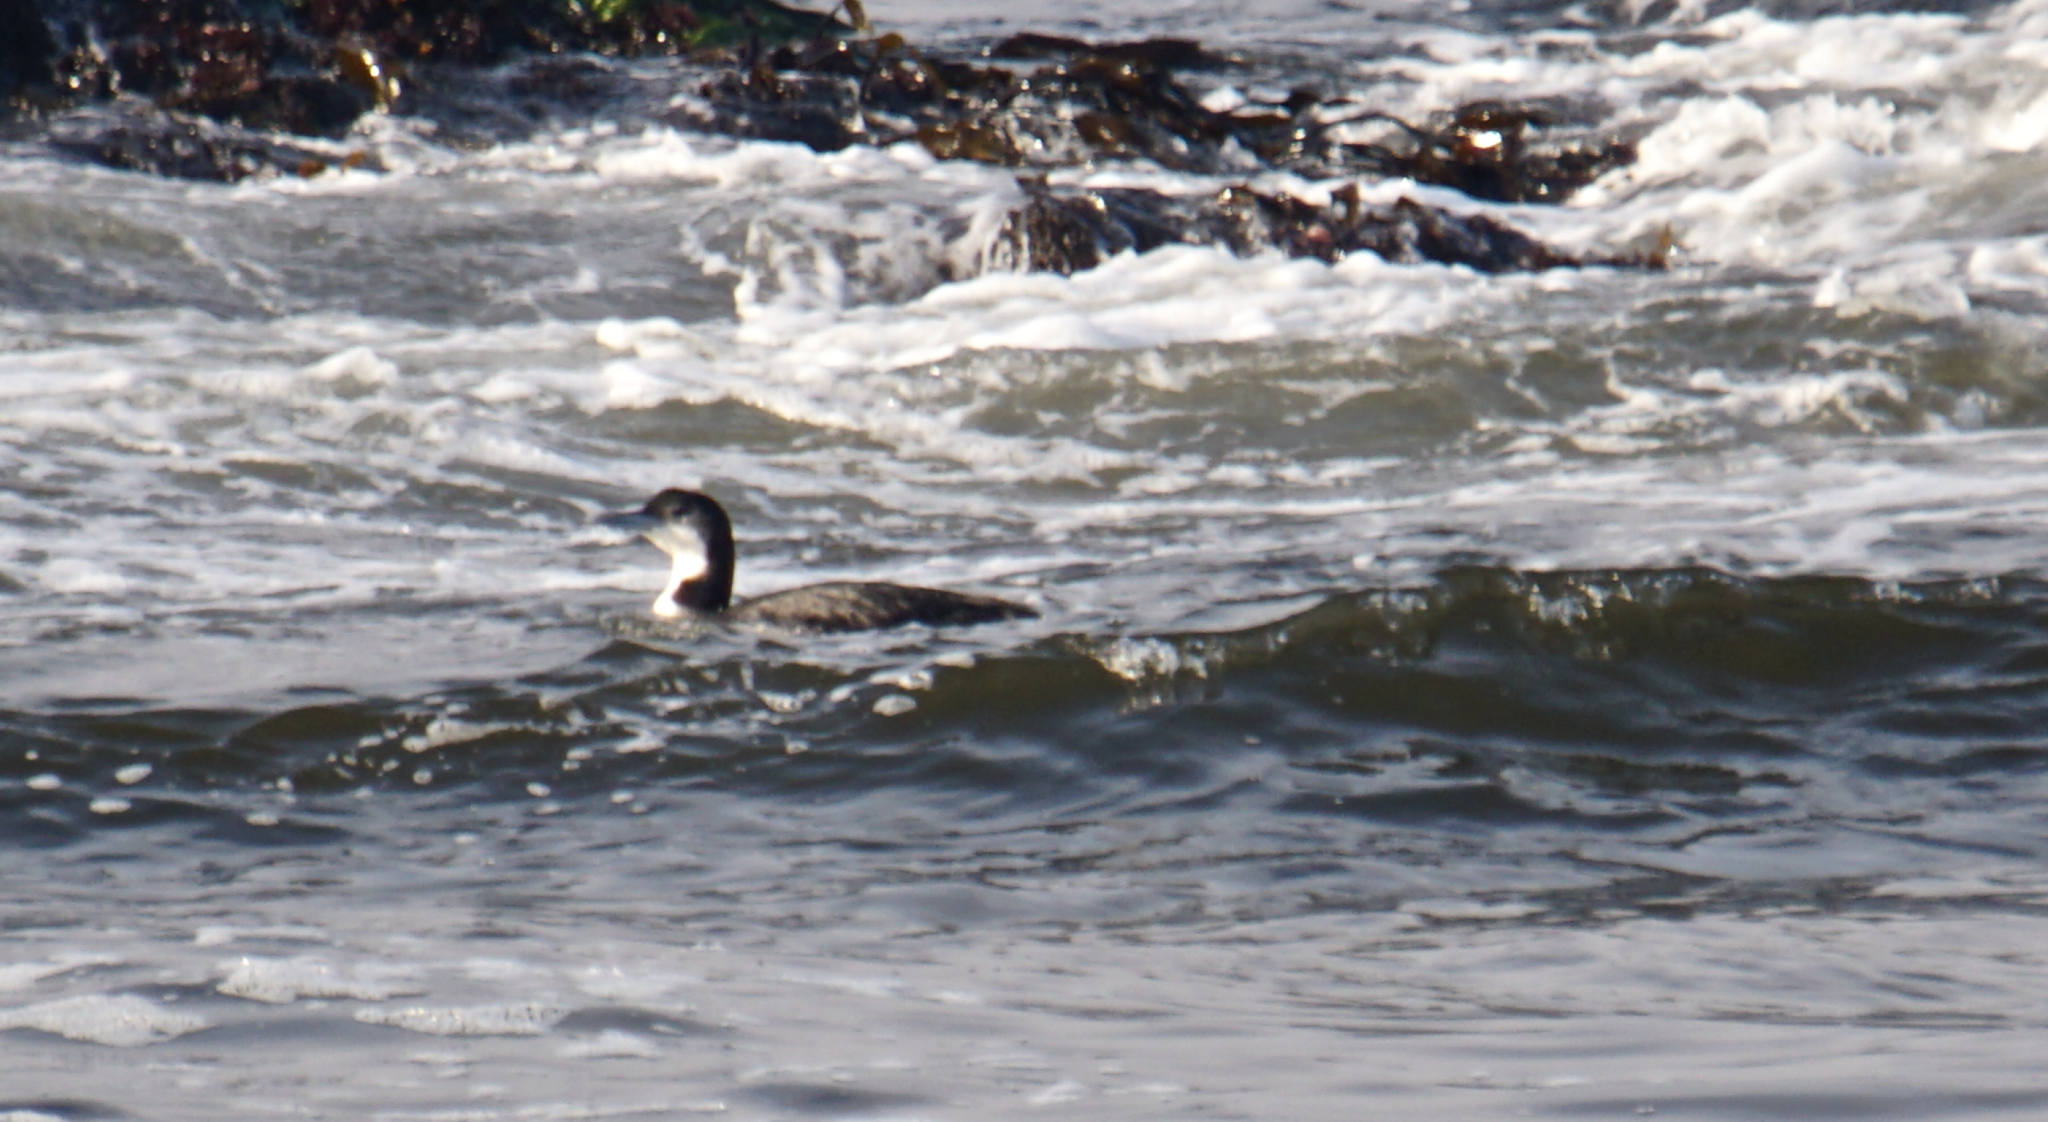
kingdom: Animalia
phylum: Chordata
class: Aves
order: Gaviiformes
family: Gaviidae
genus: Gavia
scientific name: Gavia immer
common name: Common loon
